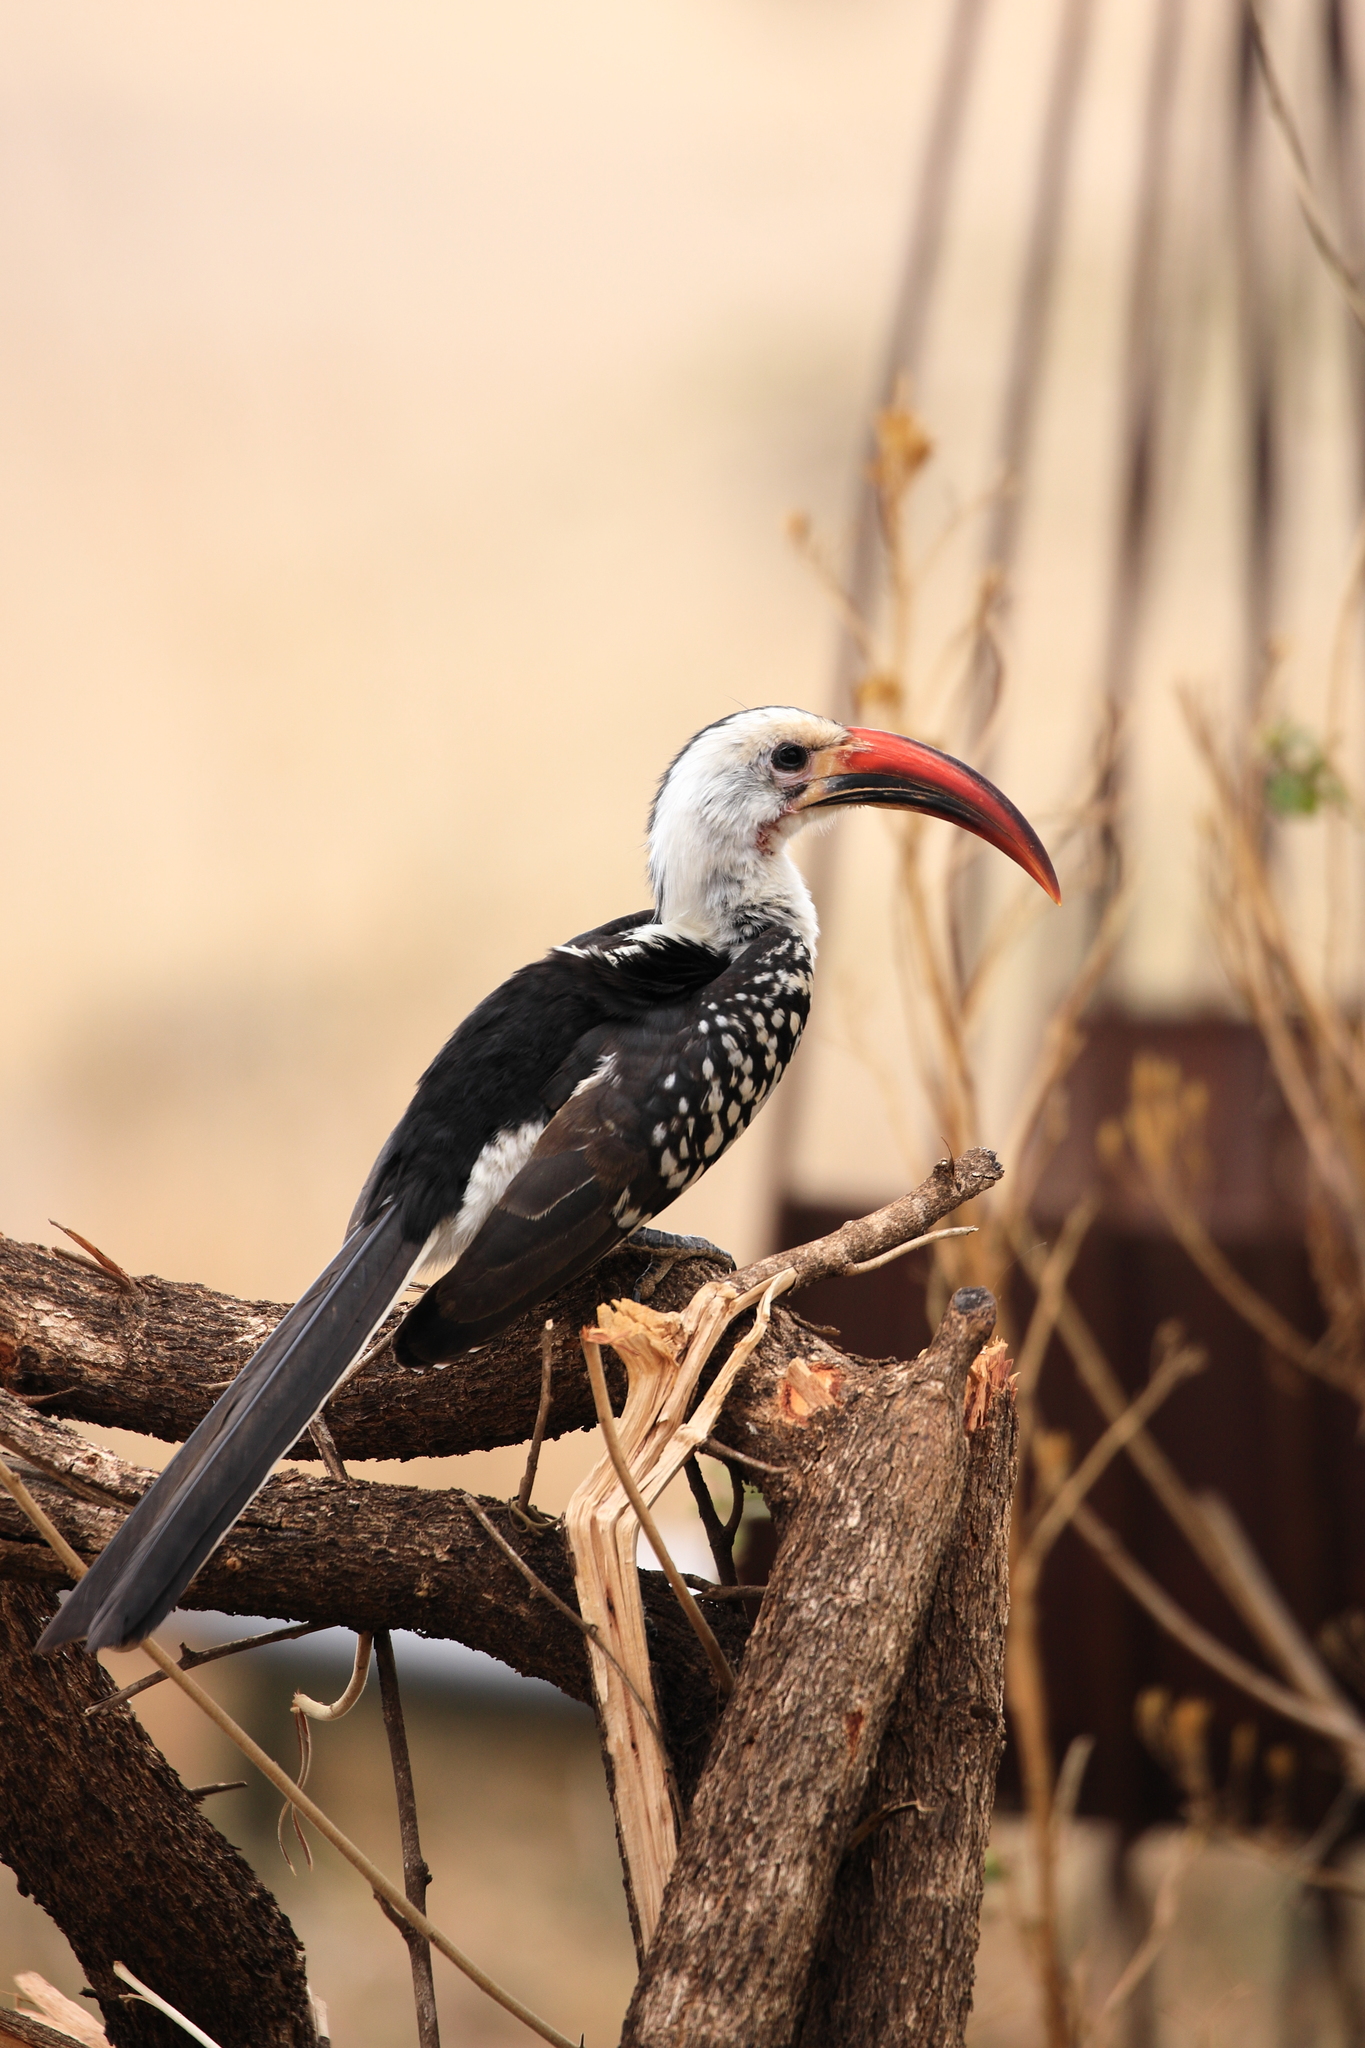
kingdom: Animalia
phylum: Chordata
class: Aves
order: Bucerotiformes
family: Bucerotidae
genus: Tockus
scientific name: Tockus erythrorhynchus
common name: Northern red-billed hornbill
